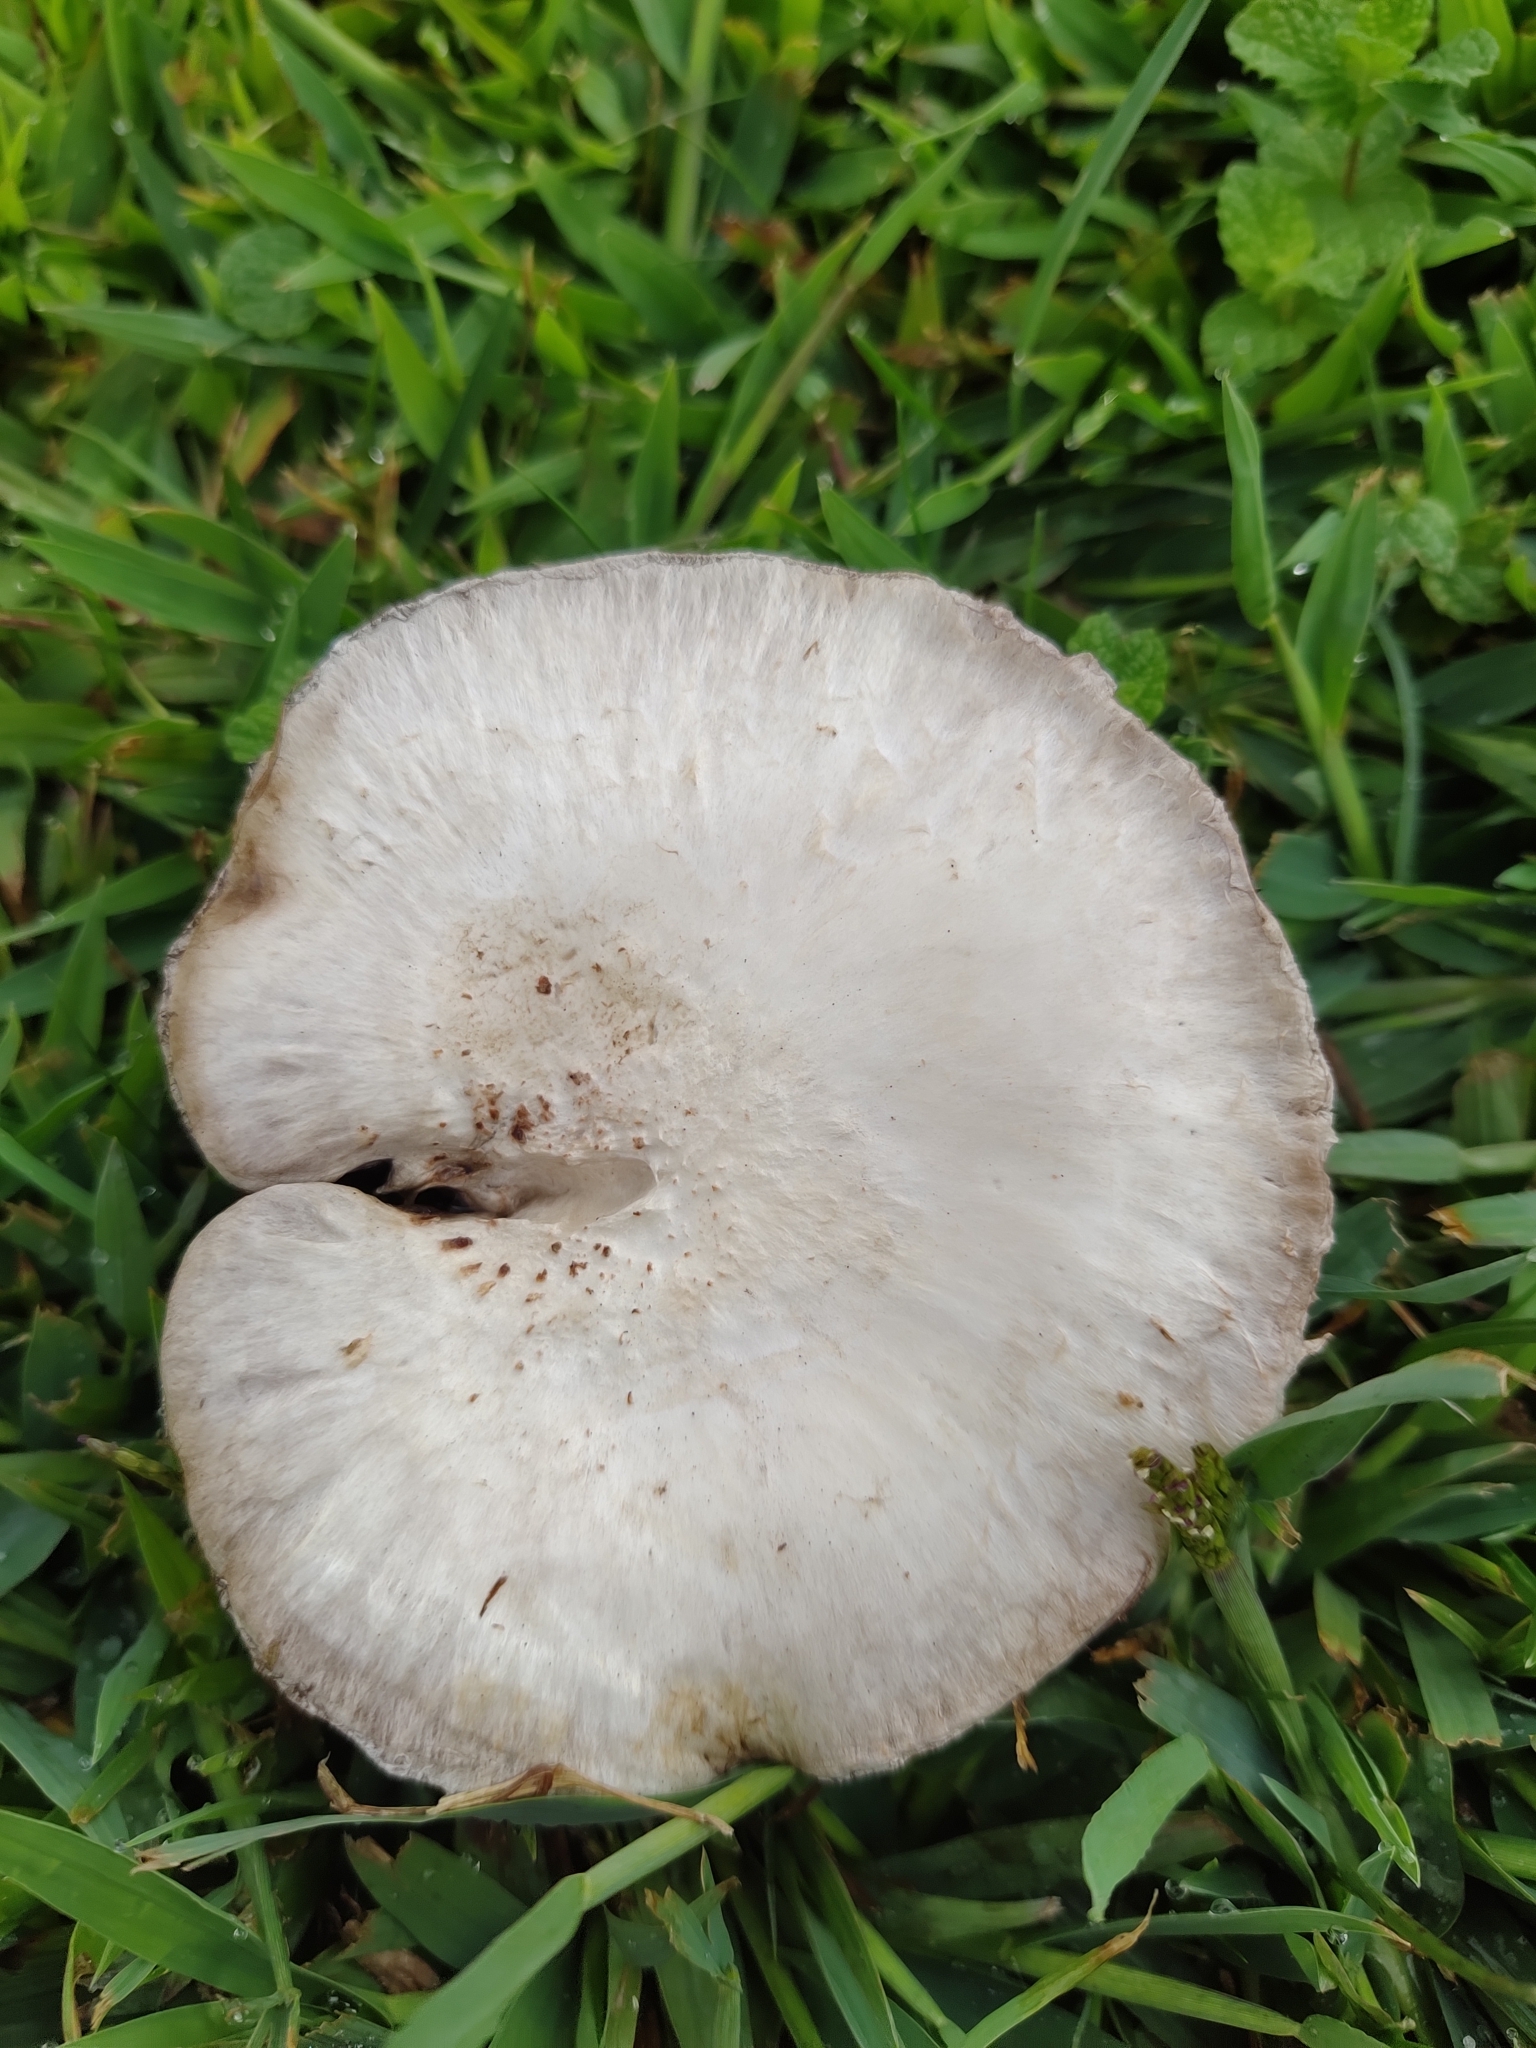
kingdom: Fungi
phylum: Basidiomycota
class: Agaricomycetes
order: Agaricales
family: Agaricaceae
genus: Agaricus
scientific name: Agaricus campestris
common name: Field mushroom
